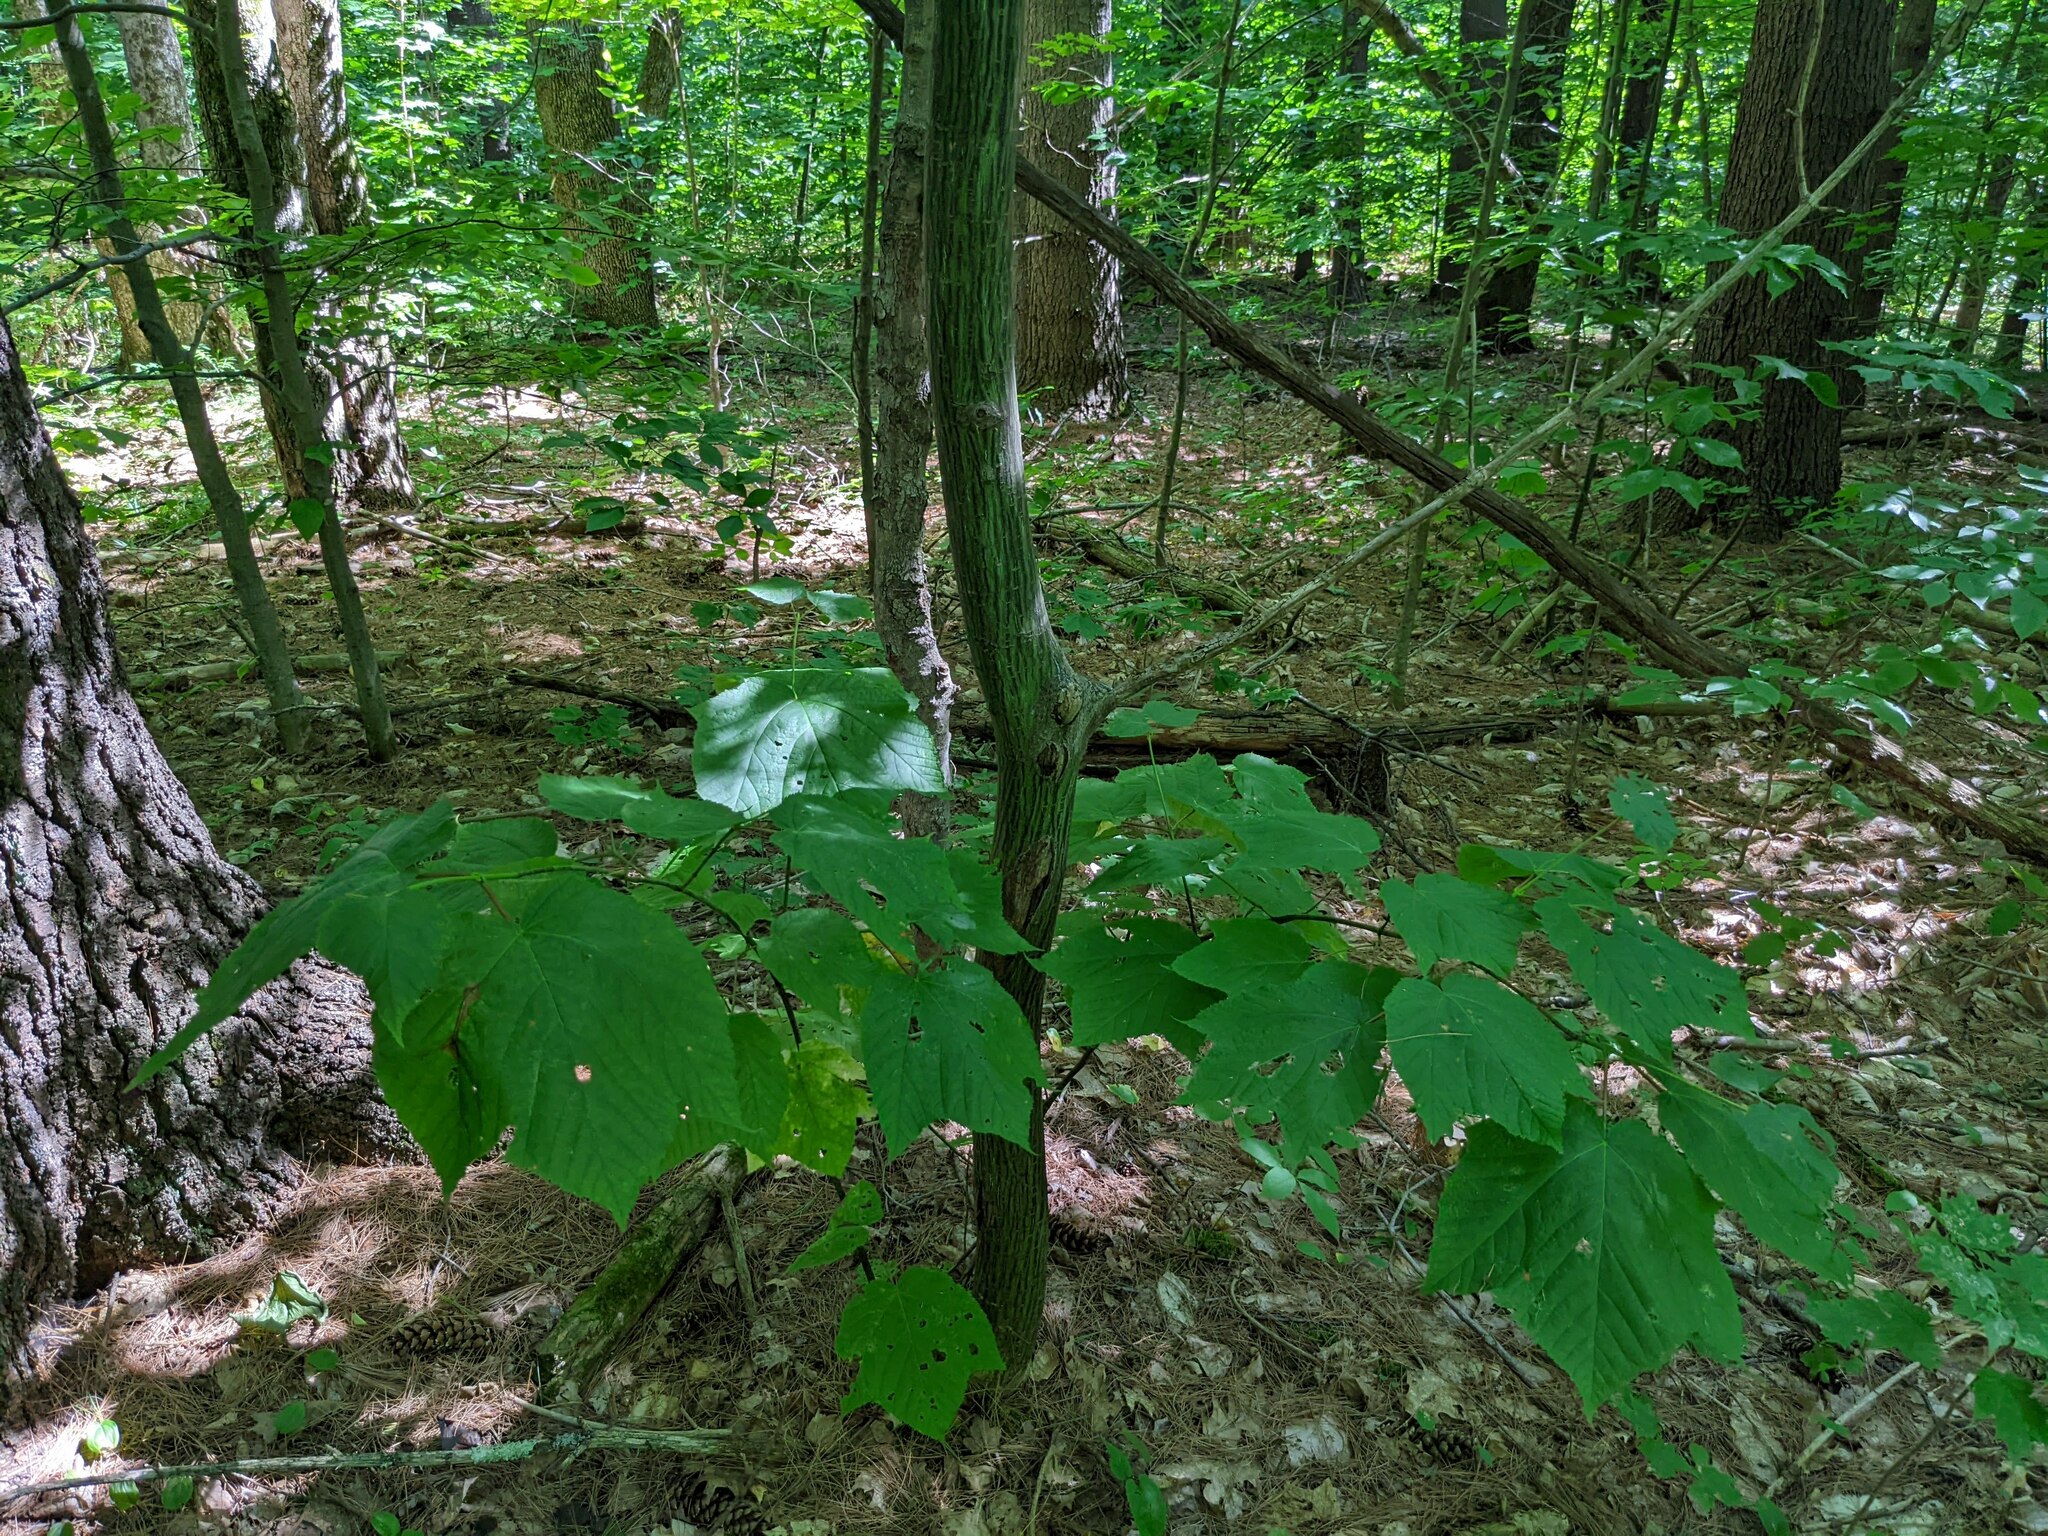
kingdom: Plantae
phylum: Tracheophyta
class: Magnoliopsida
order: Sapindales
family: Sapindaceae
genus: Acer
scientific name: Acer pensylvanicum
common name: Moosewood
